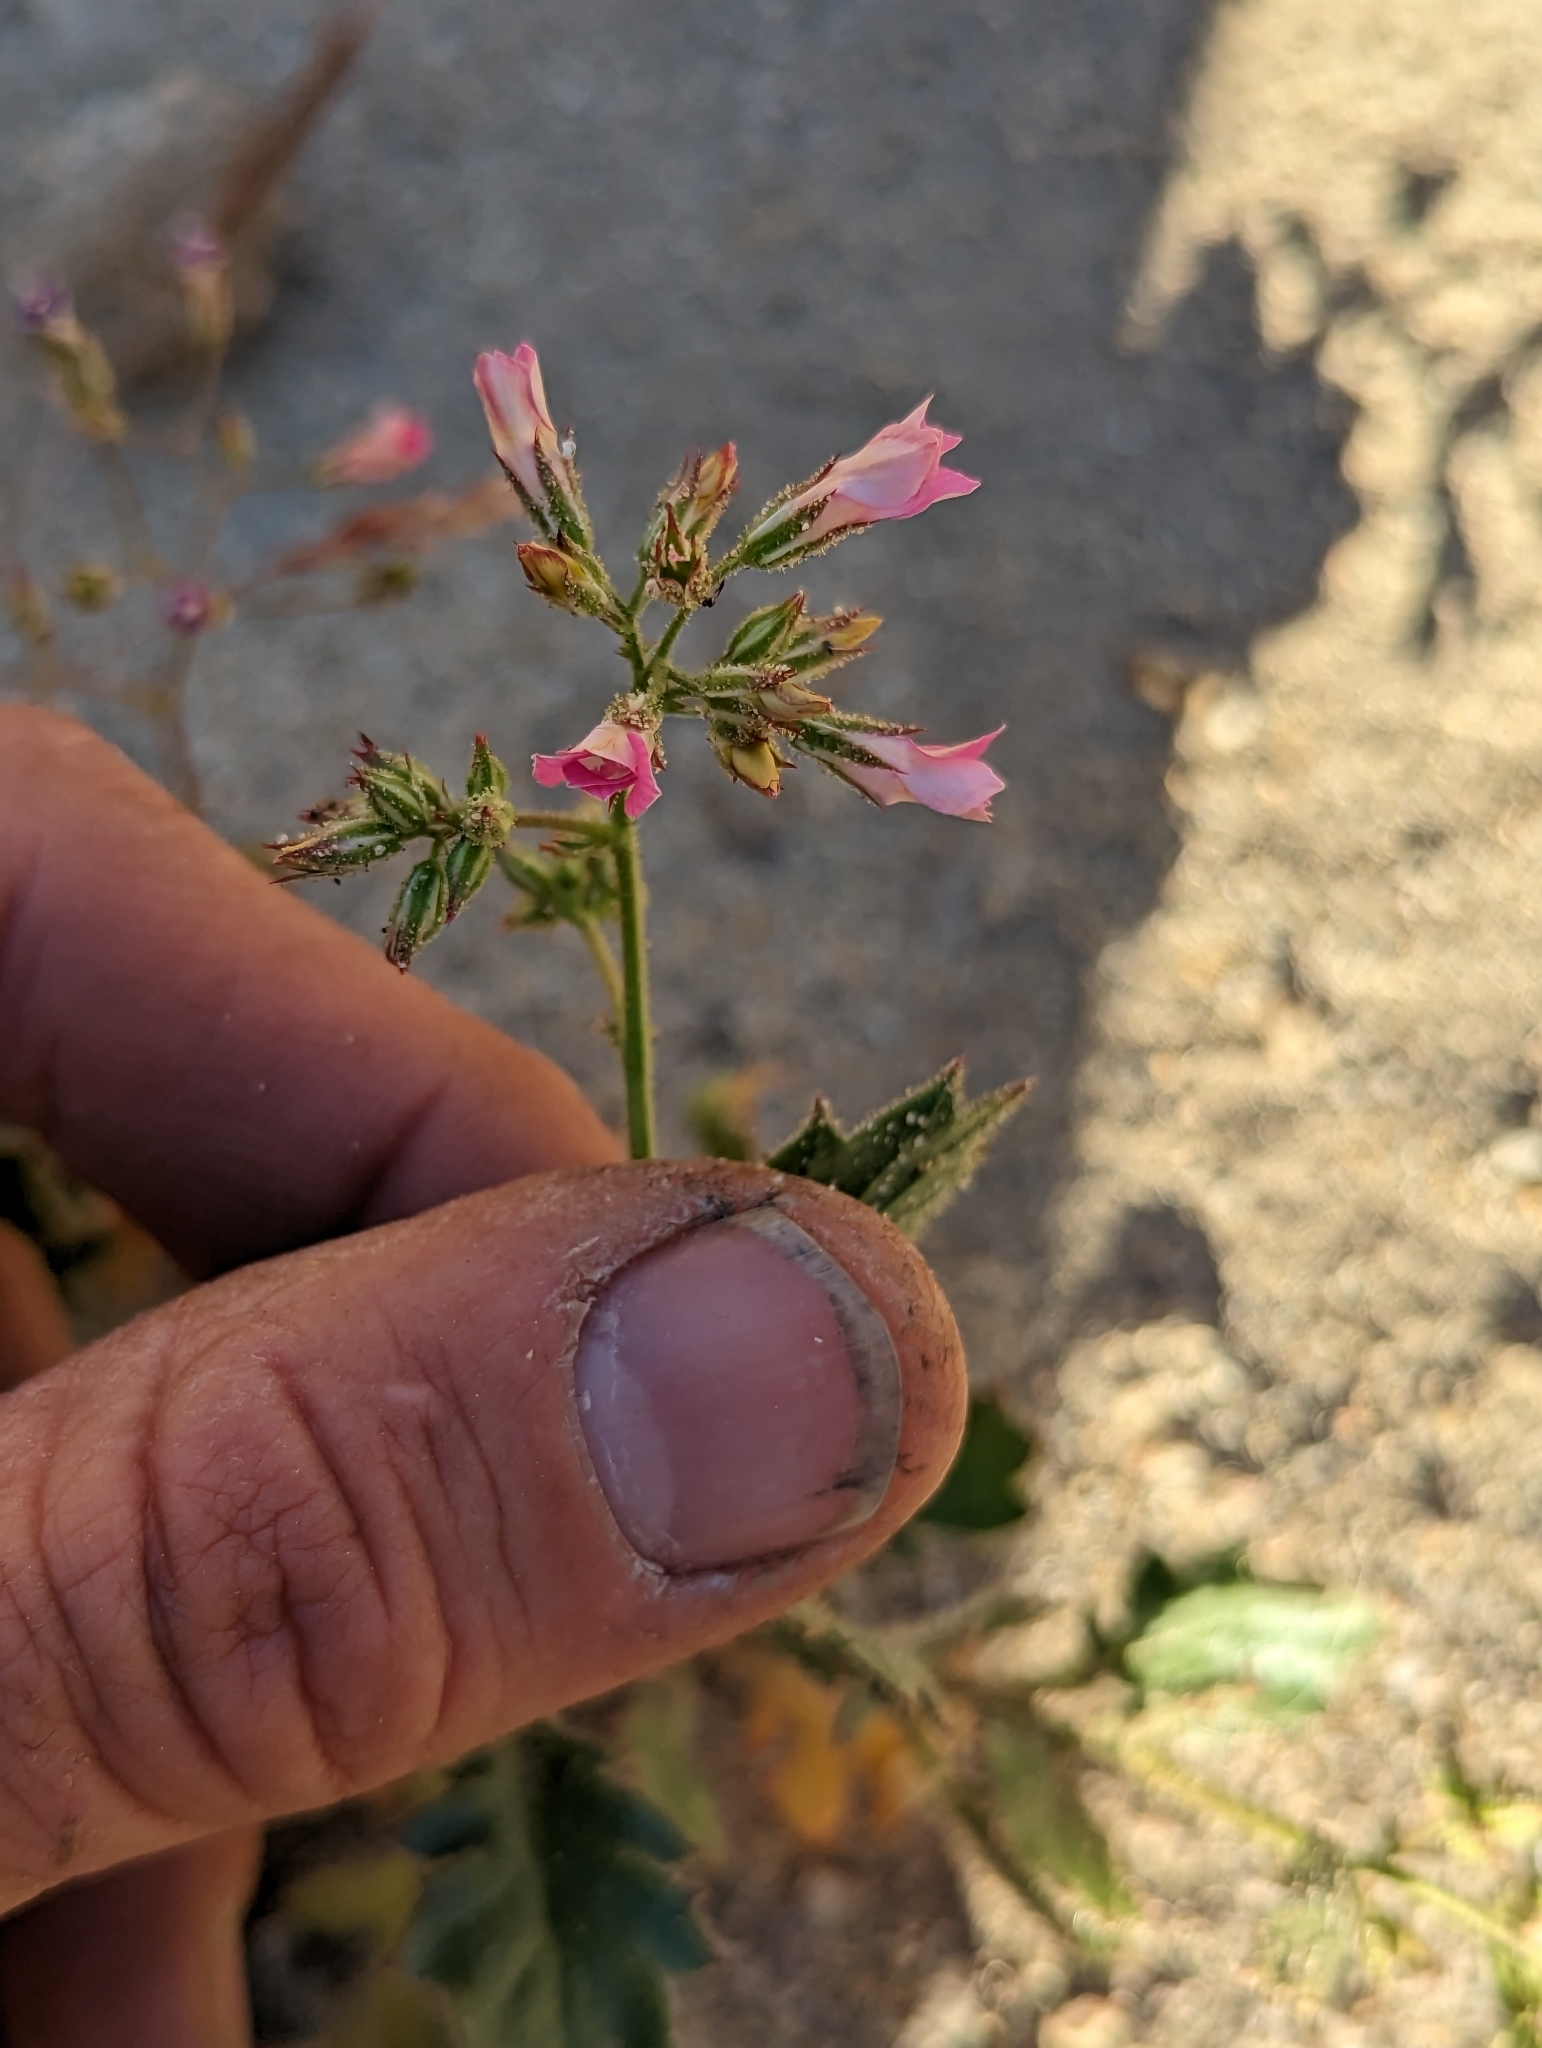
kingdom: Plantae
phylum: Tracheophyta
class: Magnoliopsida
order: Ericales
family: Polemoniaceae
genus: Aliciella
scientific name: Aliciella latifolia
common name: Broad-leaf gilia
